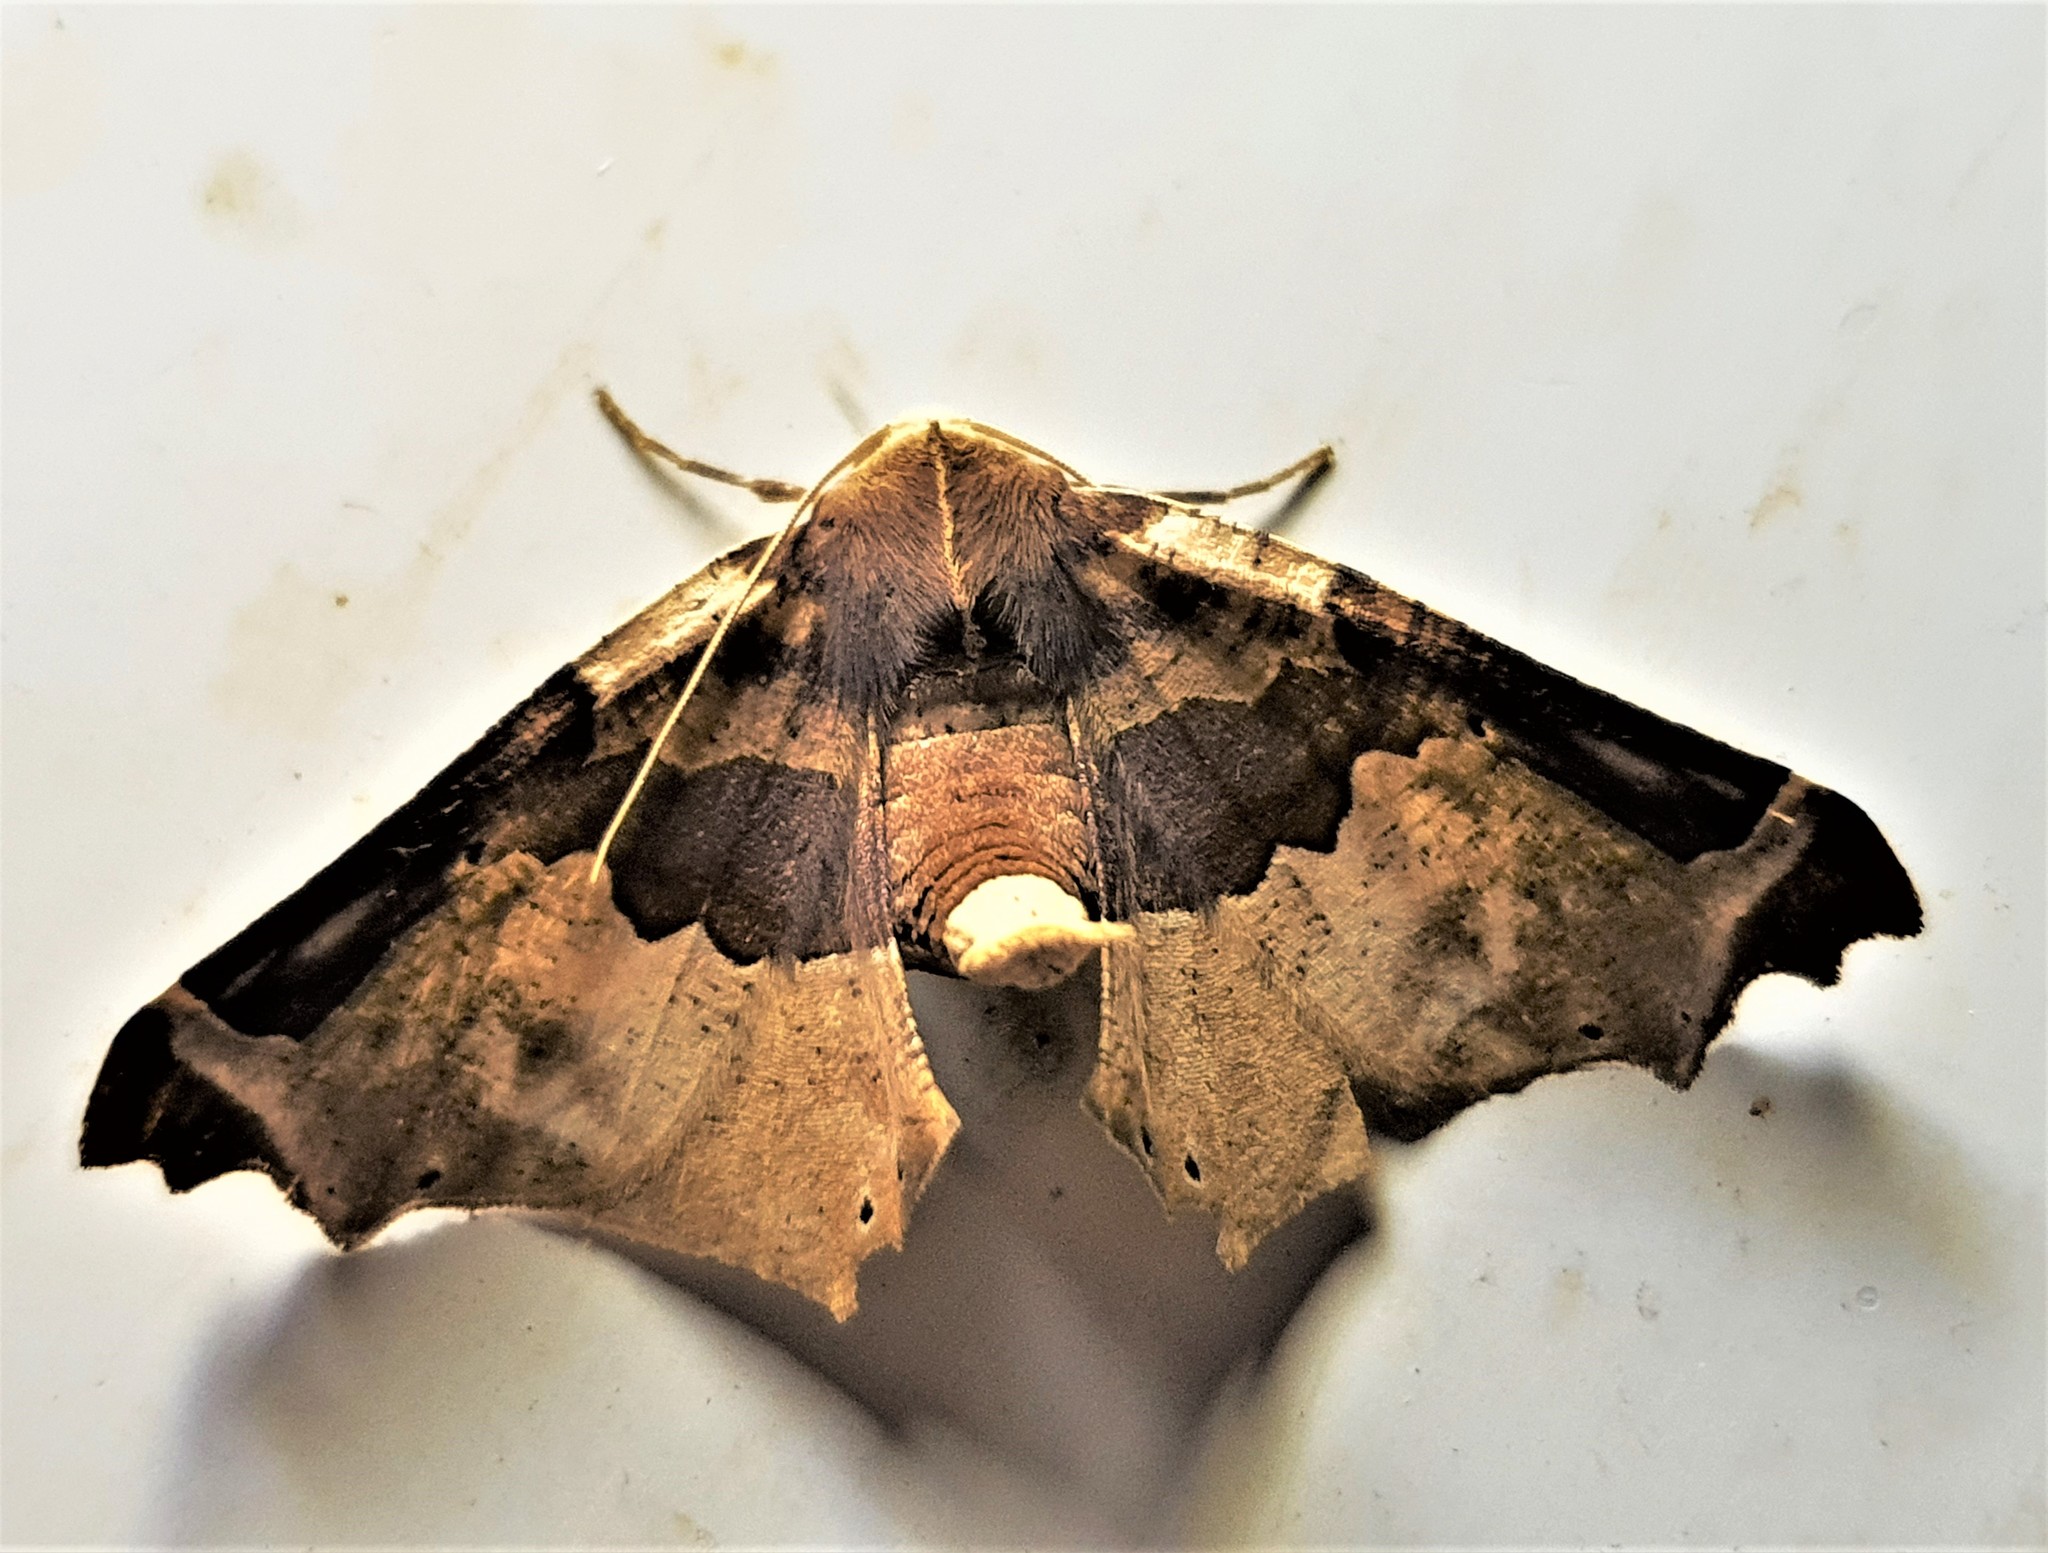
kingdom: Animalia
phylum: Arthropoda
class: Insecta
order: Lepidoptera
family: Geometridae
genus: Pero
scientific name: Pero constrictifascia
